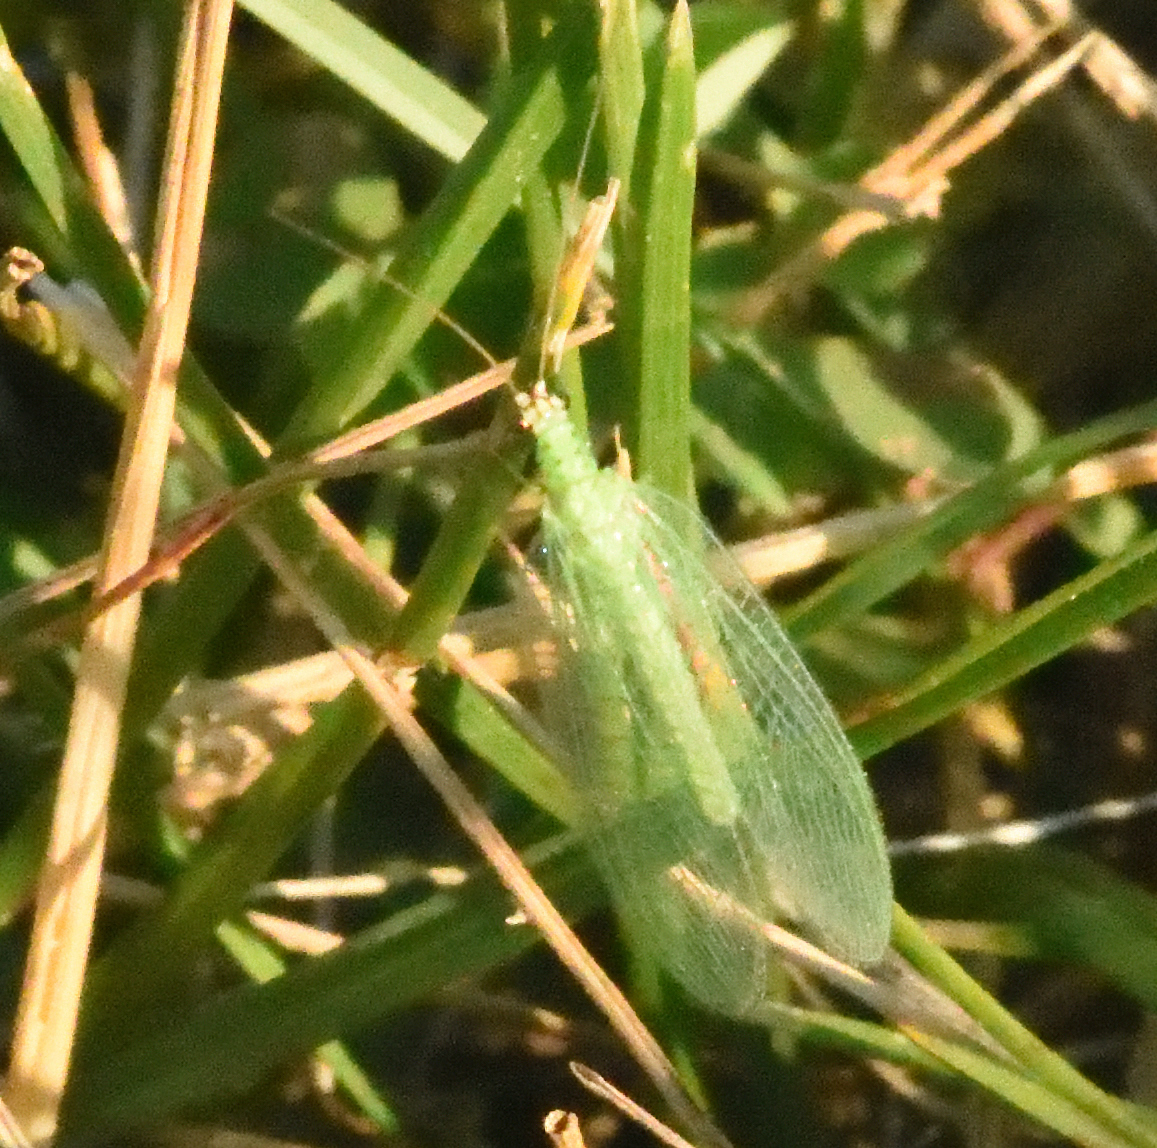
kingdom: Animalia
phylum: Arthropoda
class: Insecta
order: Neuroptera
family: Chrysopidae
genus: Chrysopa
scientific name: Chrysopa oculata
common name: Golden-eyed lacewing
